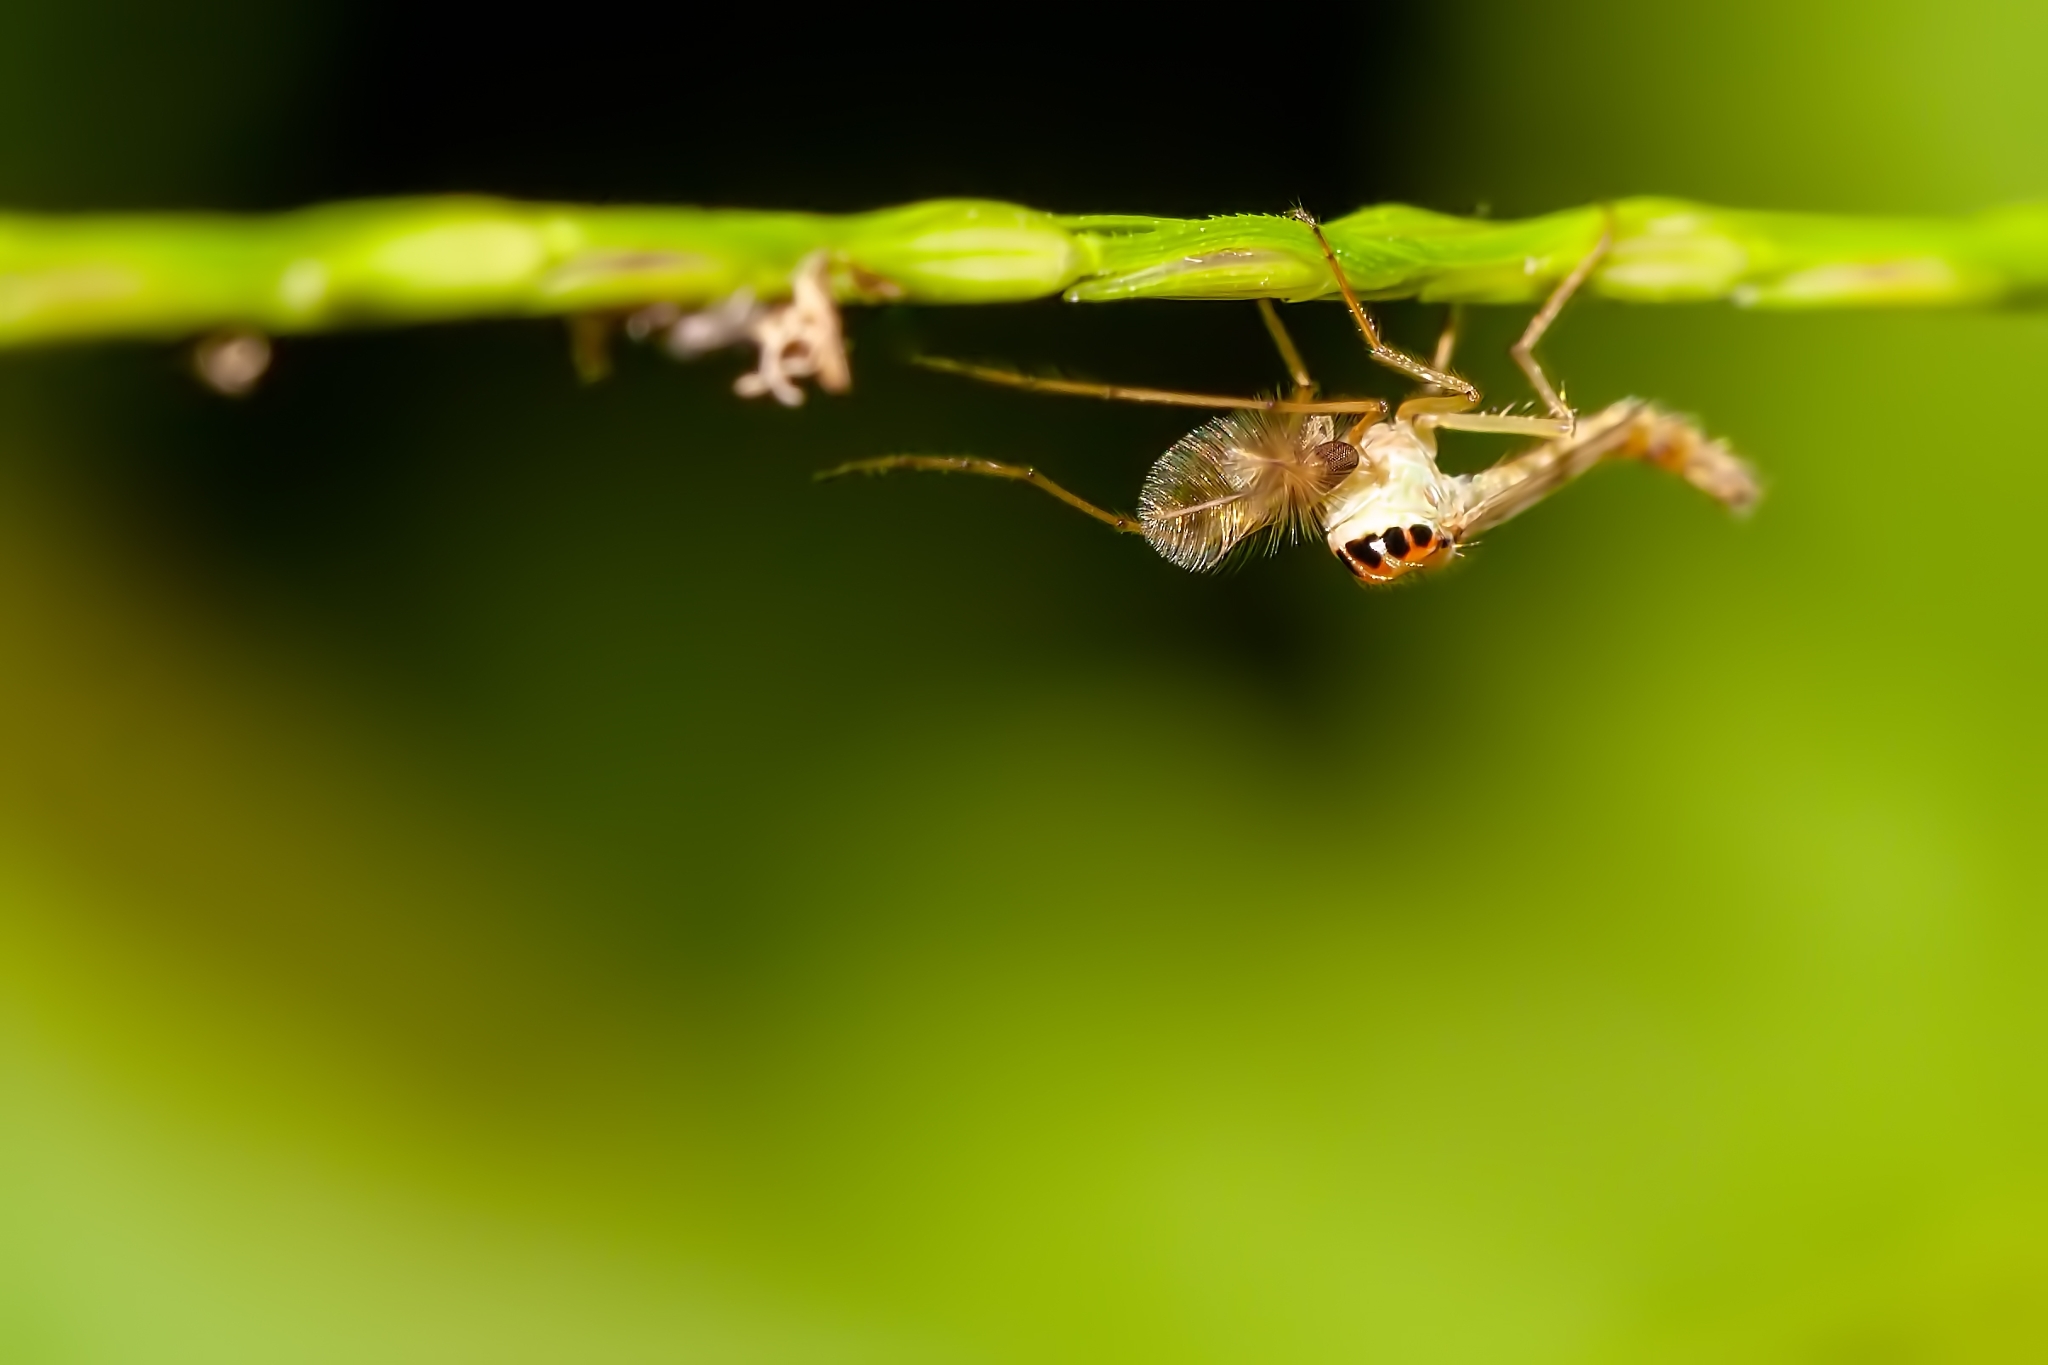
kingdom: Animalia
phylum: Arthropoda
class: Insecta
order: Diptera
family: Chironomidae
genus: Goeldichironomus
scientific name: Goeldichironomus carus
